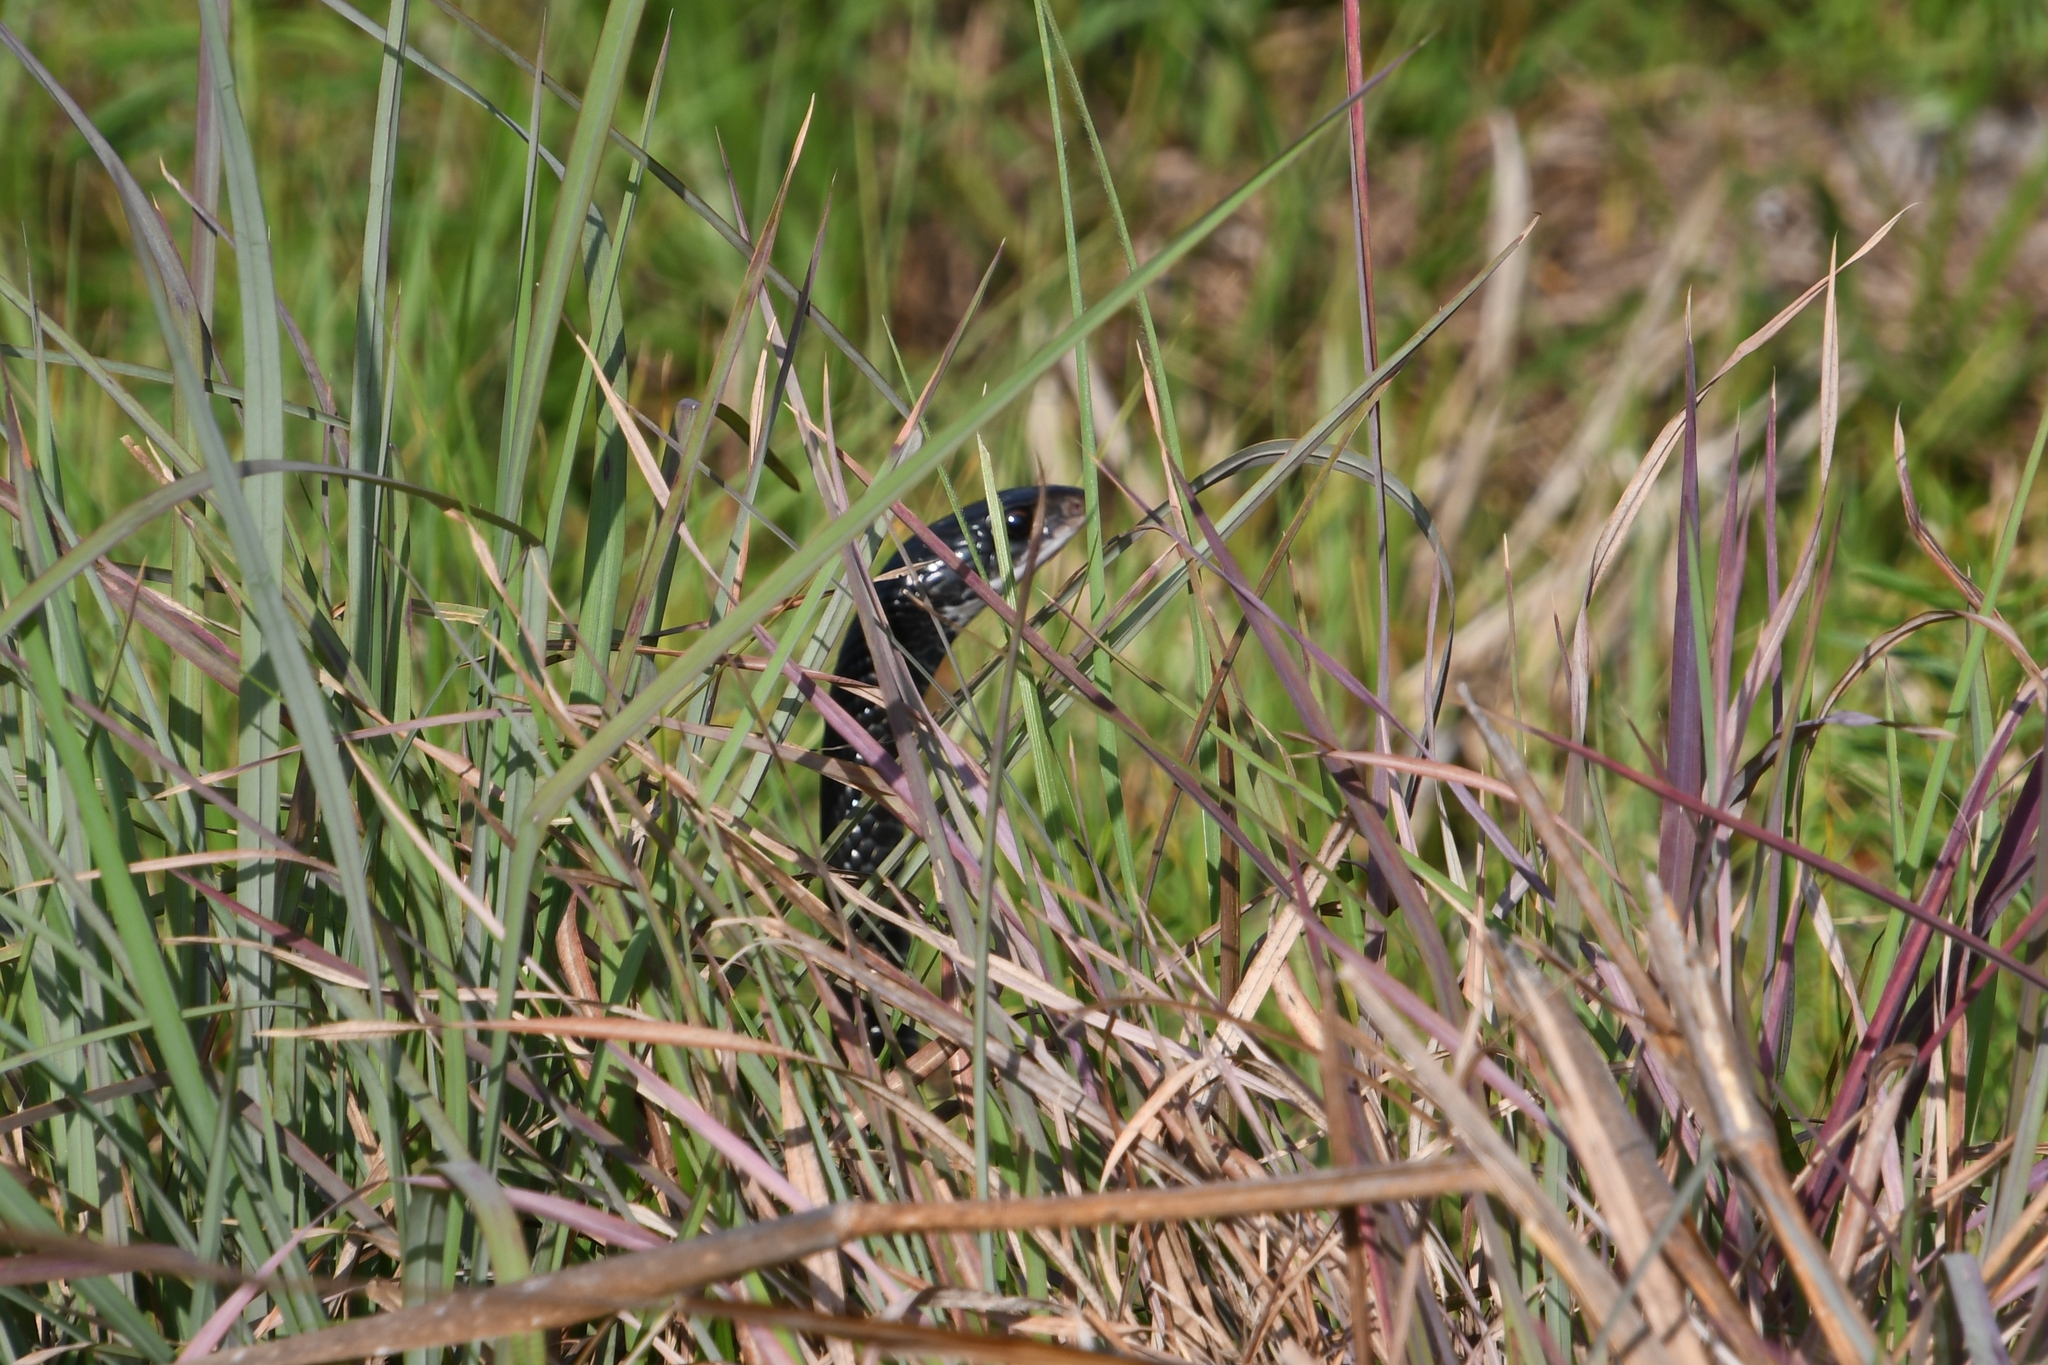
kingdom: Animalia
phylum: Chordata
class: Squamata
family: Colubridae
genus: Coluber
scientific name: Coluber constrictor
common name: Eastern racer
